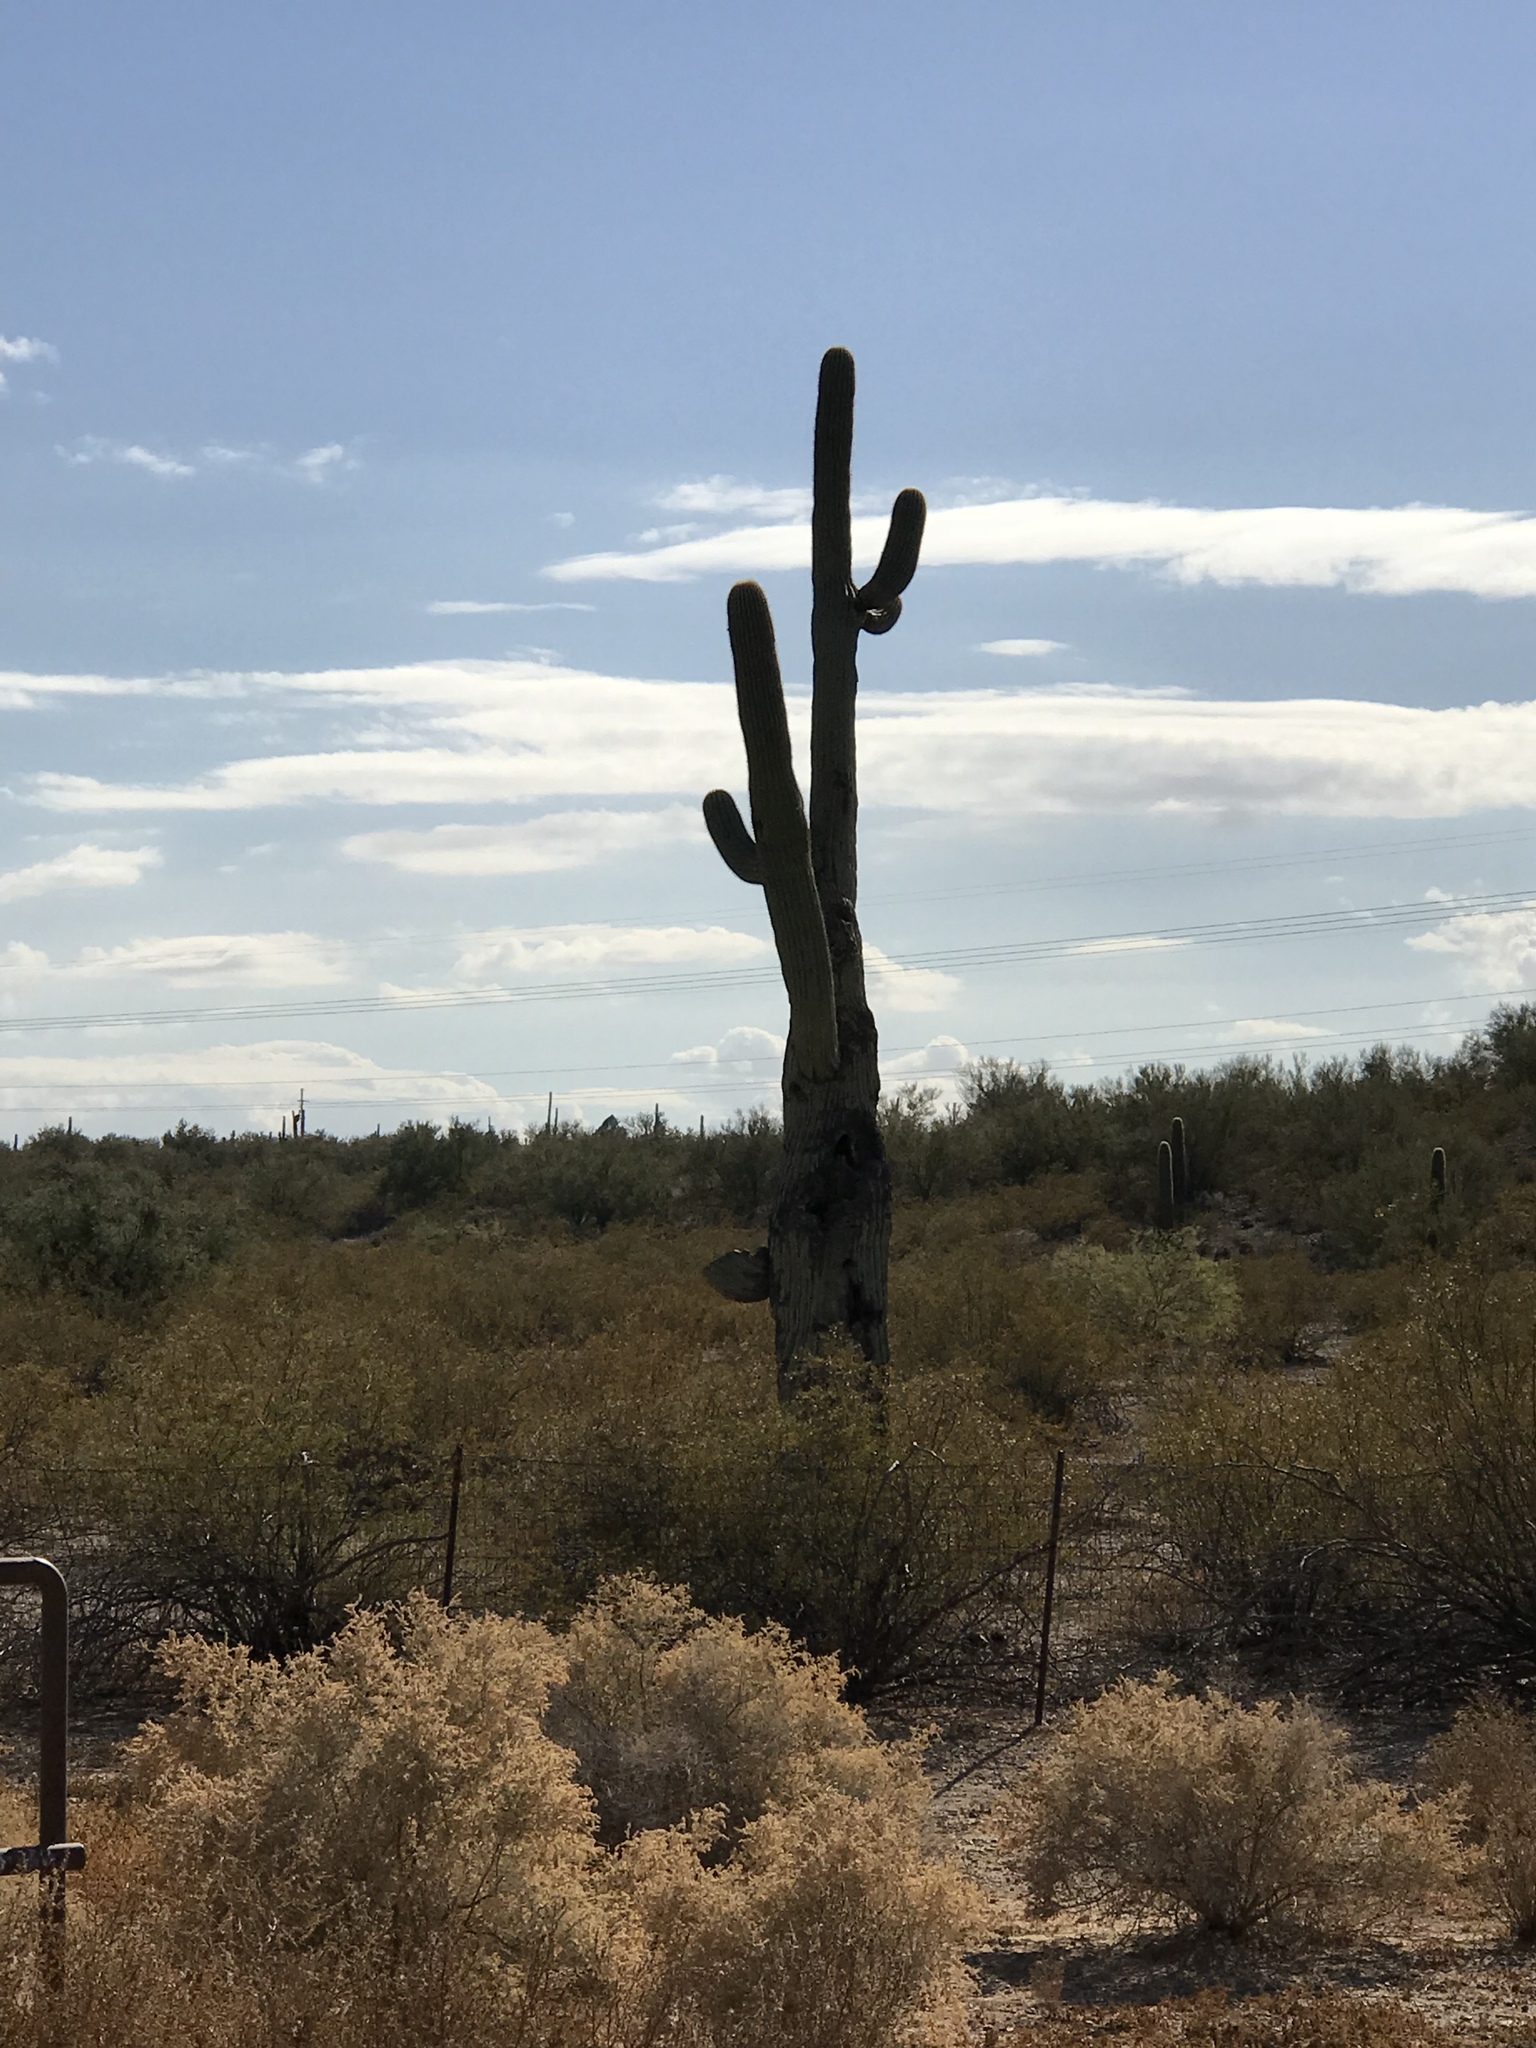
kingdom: Plantae
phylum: Tracheophyta
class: Magnoliopsida
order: Caryophyllales
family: Cactaceae
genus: Carnegiea
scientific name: Carnegiea gigantea
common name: Saguaro
